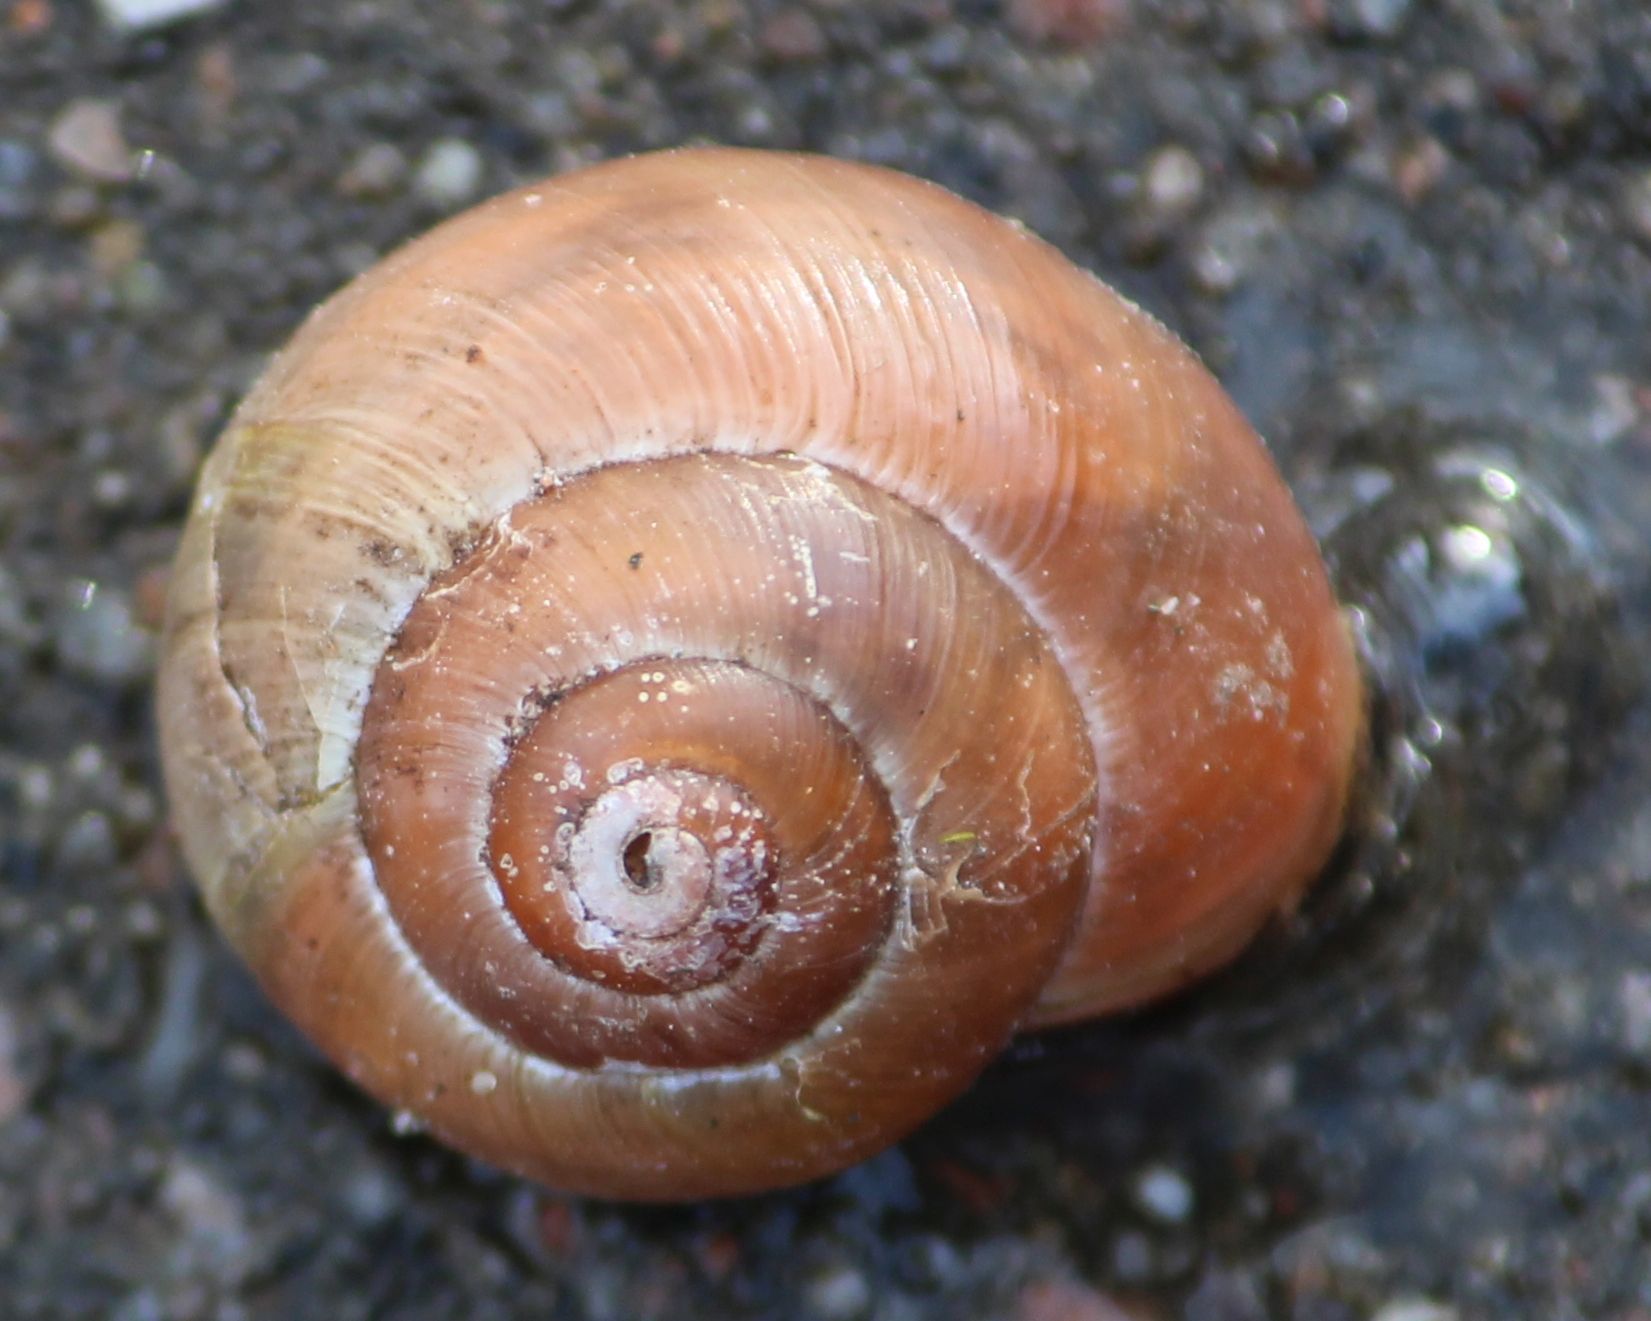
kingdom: Animalia
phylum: Mollusca
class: Gastropoda
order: Stylommatophora
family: Helicidae
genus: Cepaea
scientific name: Cepaea nemoralis
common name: Grovesnail
